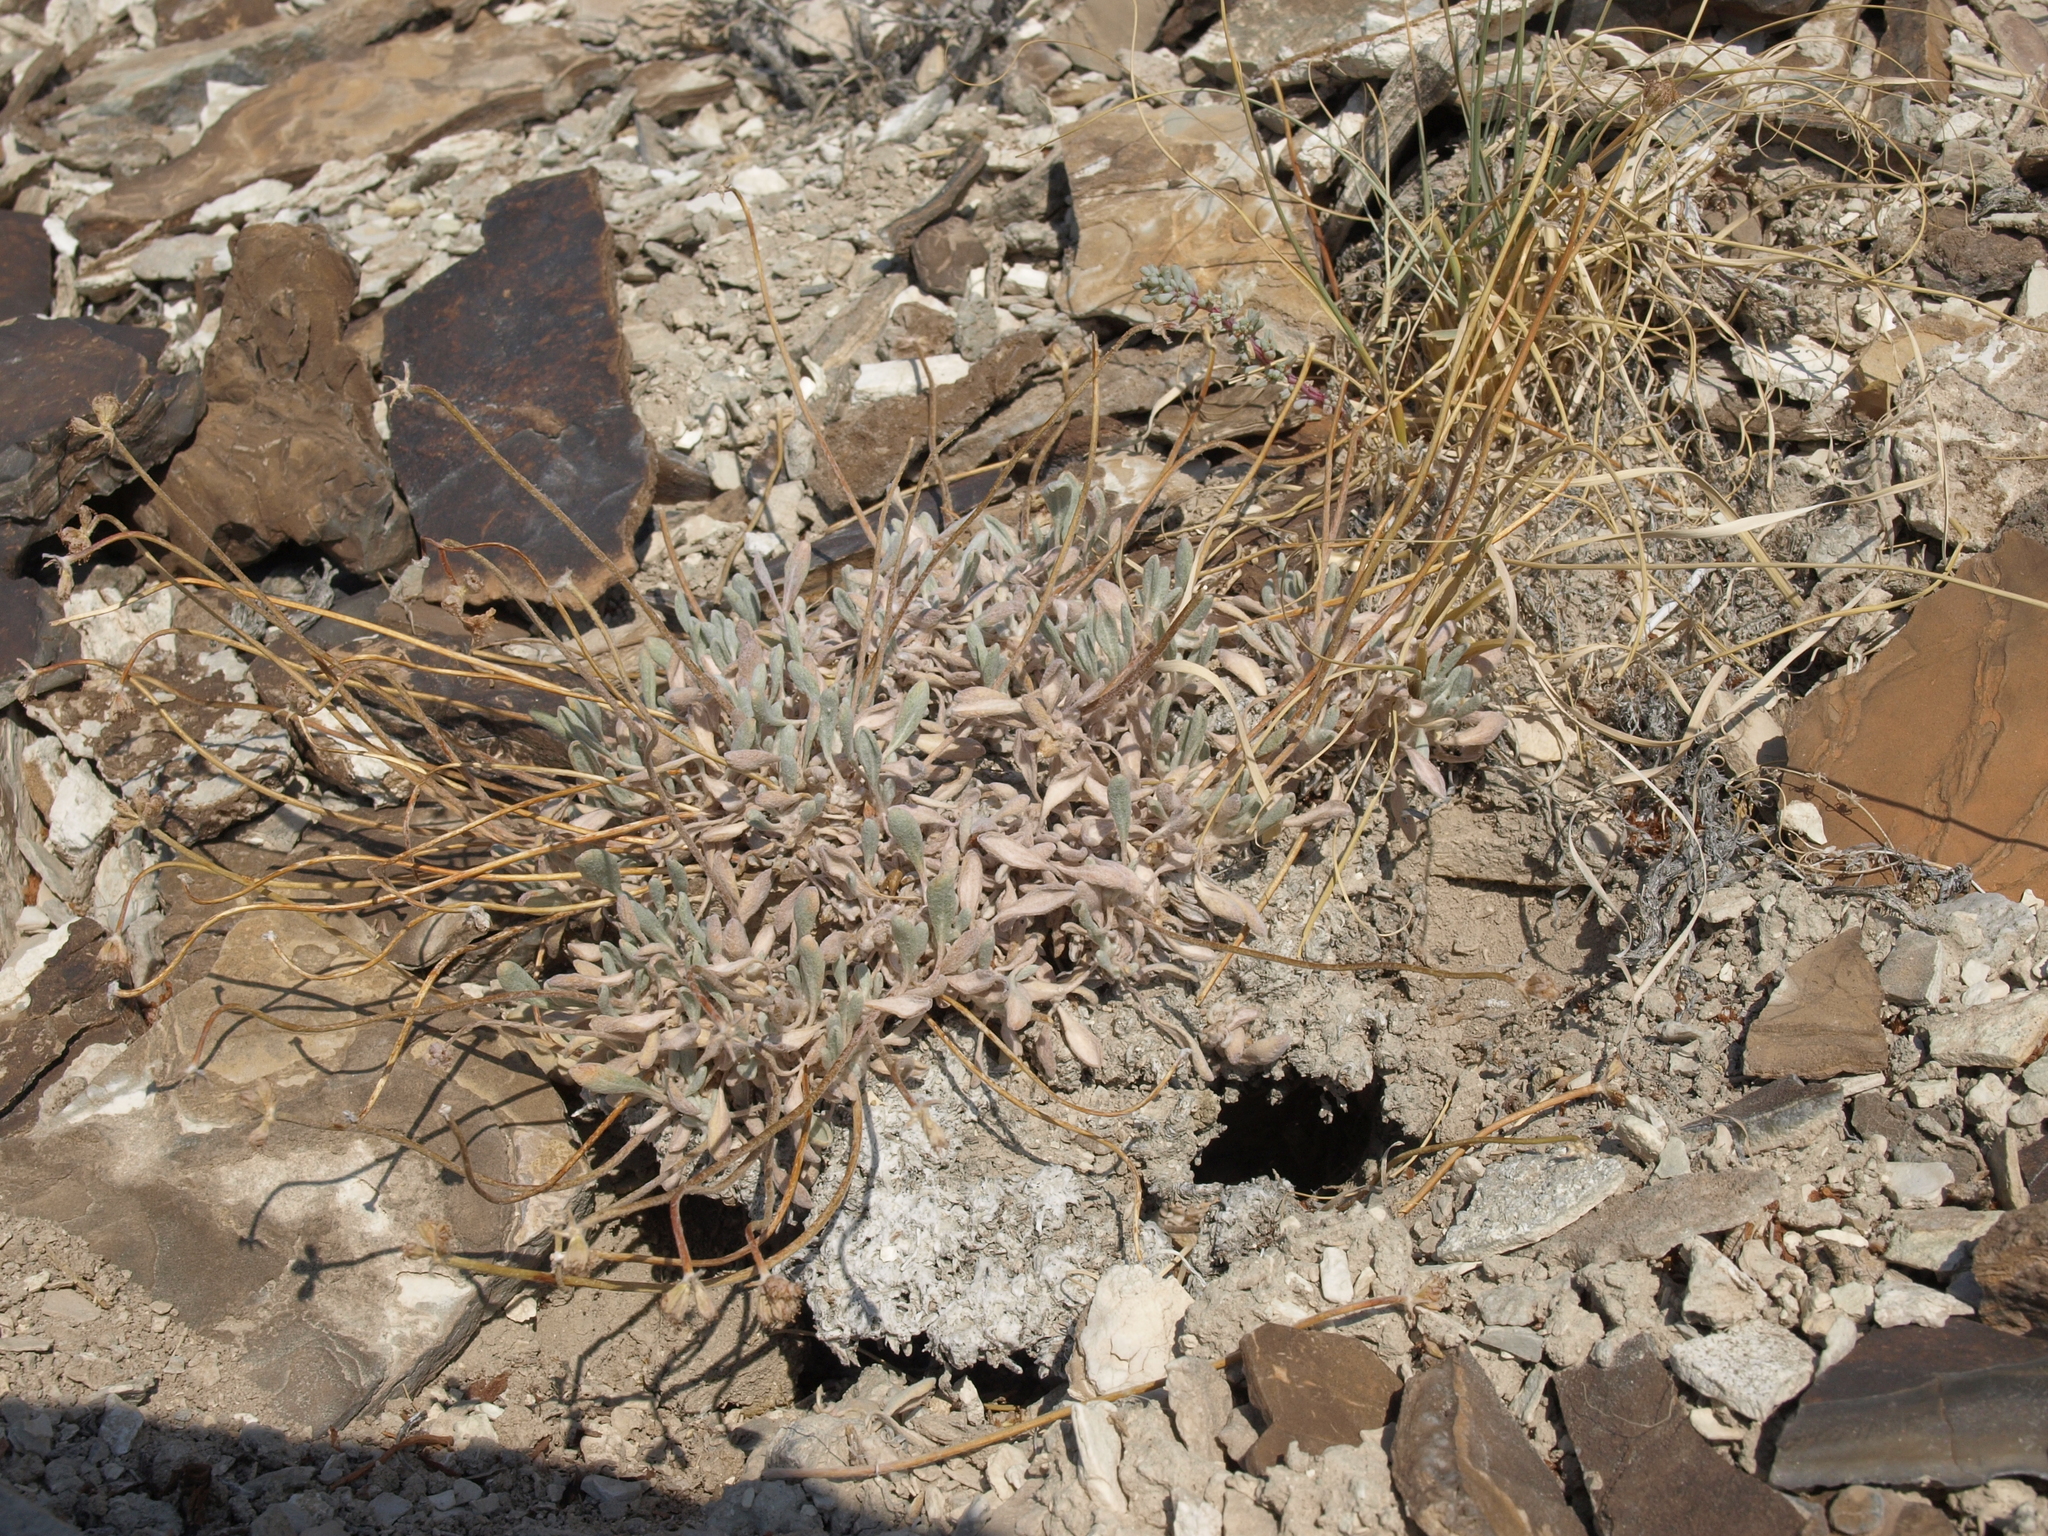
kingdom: Plantae
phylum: Tracheophyta
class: Magnoliopsida
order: Caryophyllales
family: Polygonaceae
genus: Eriogonum
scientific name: Eriogonum tiehmii
